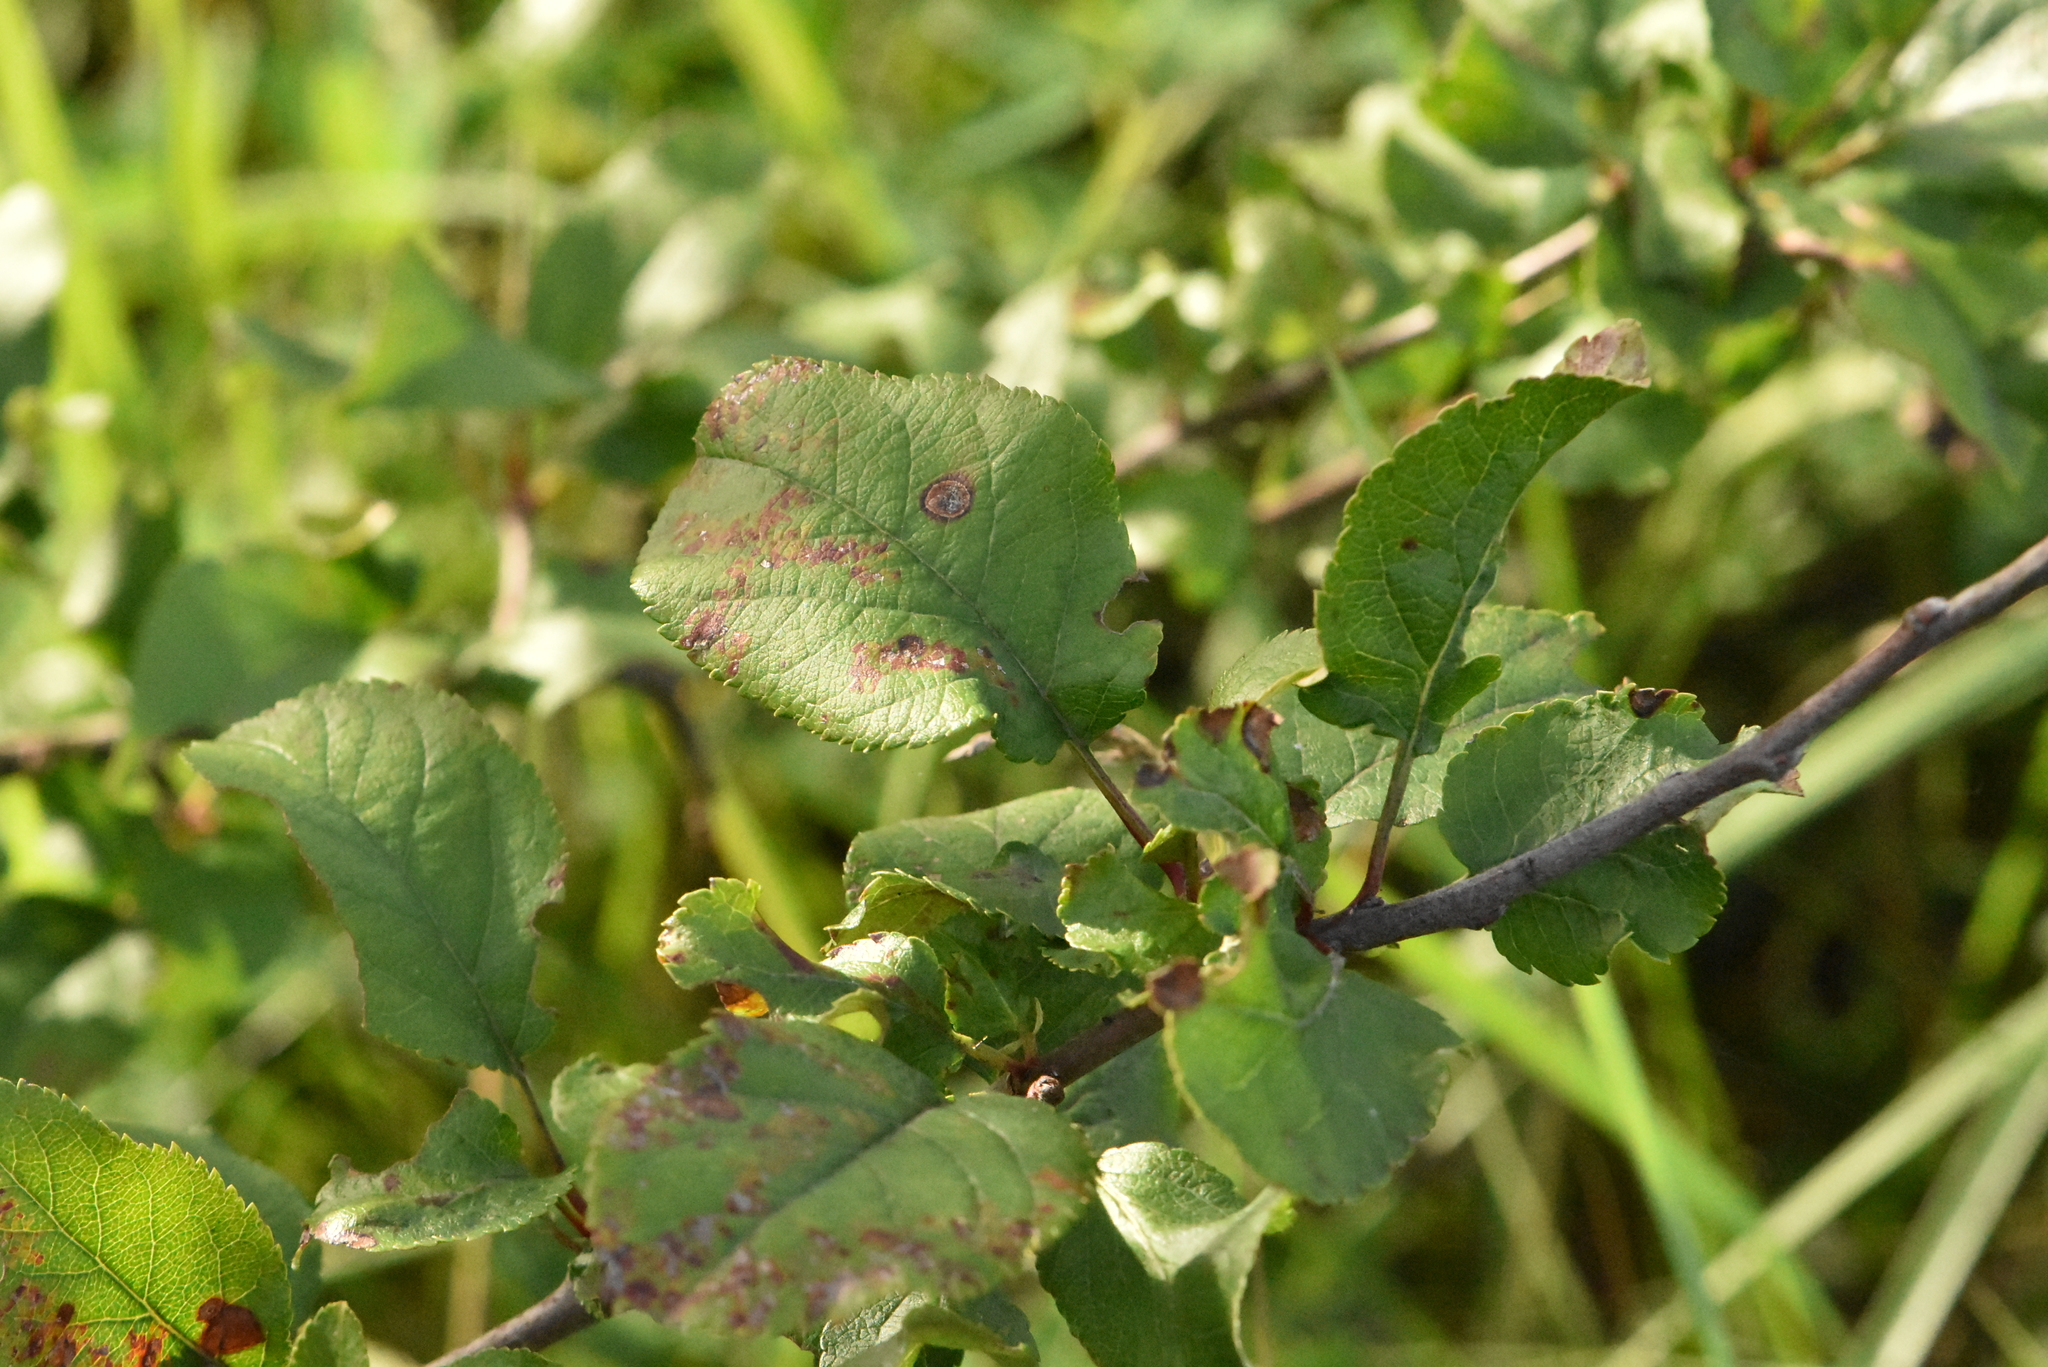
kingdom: Plantae
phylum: Tracheophyta
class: Magnoliopsida
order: Rosales
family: Rosaceae
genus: Malus
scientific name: Malus domestica
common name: Apple
